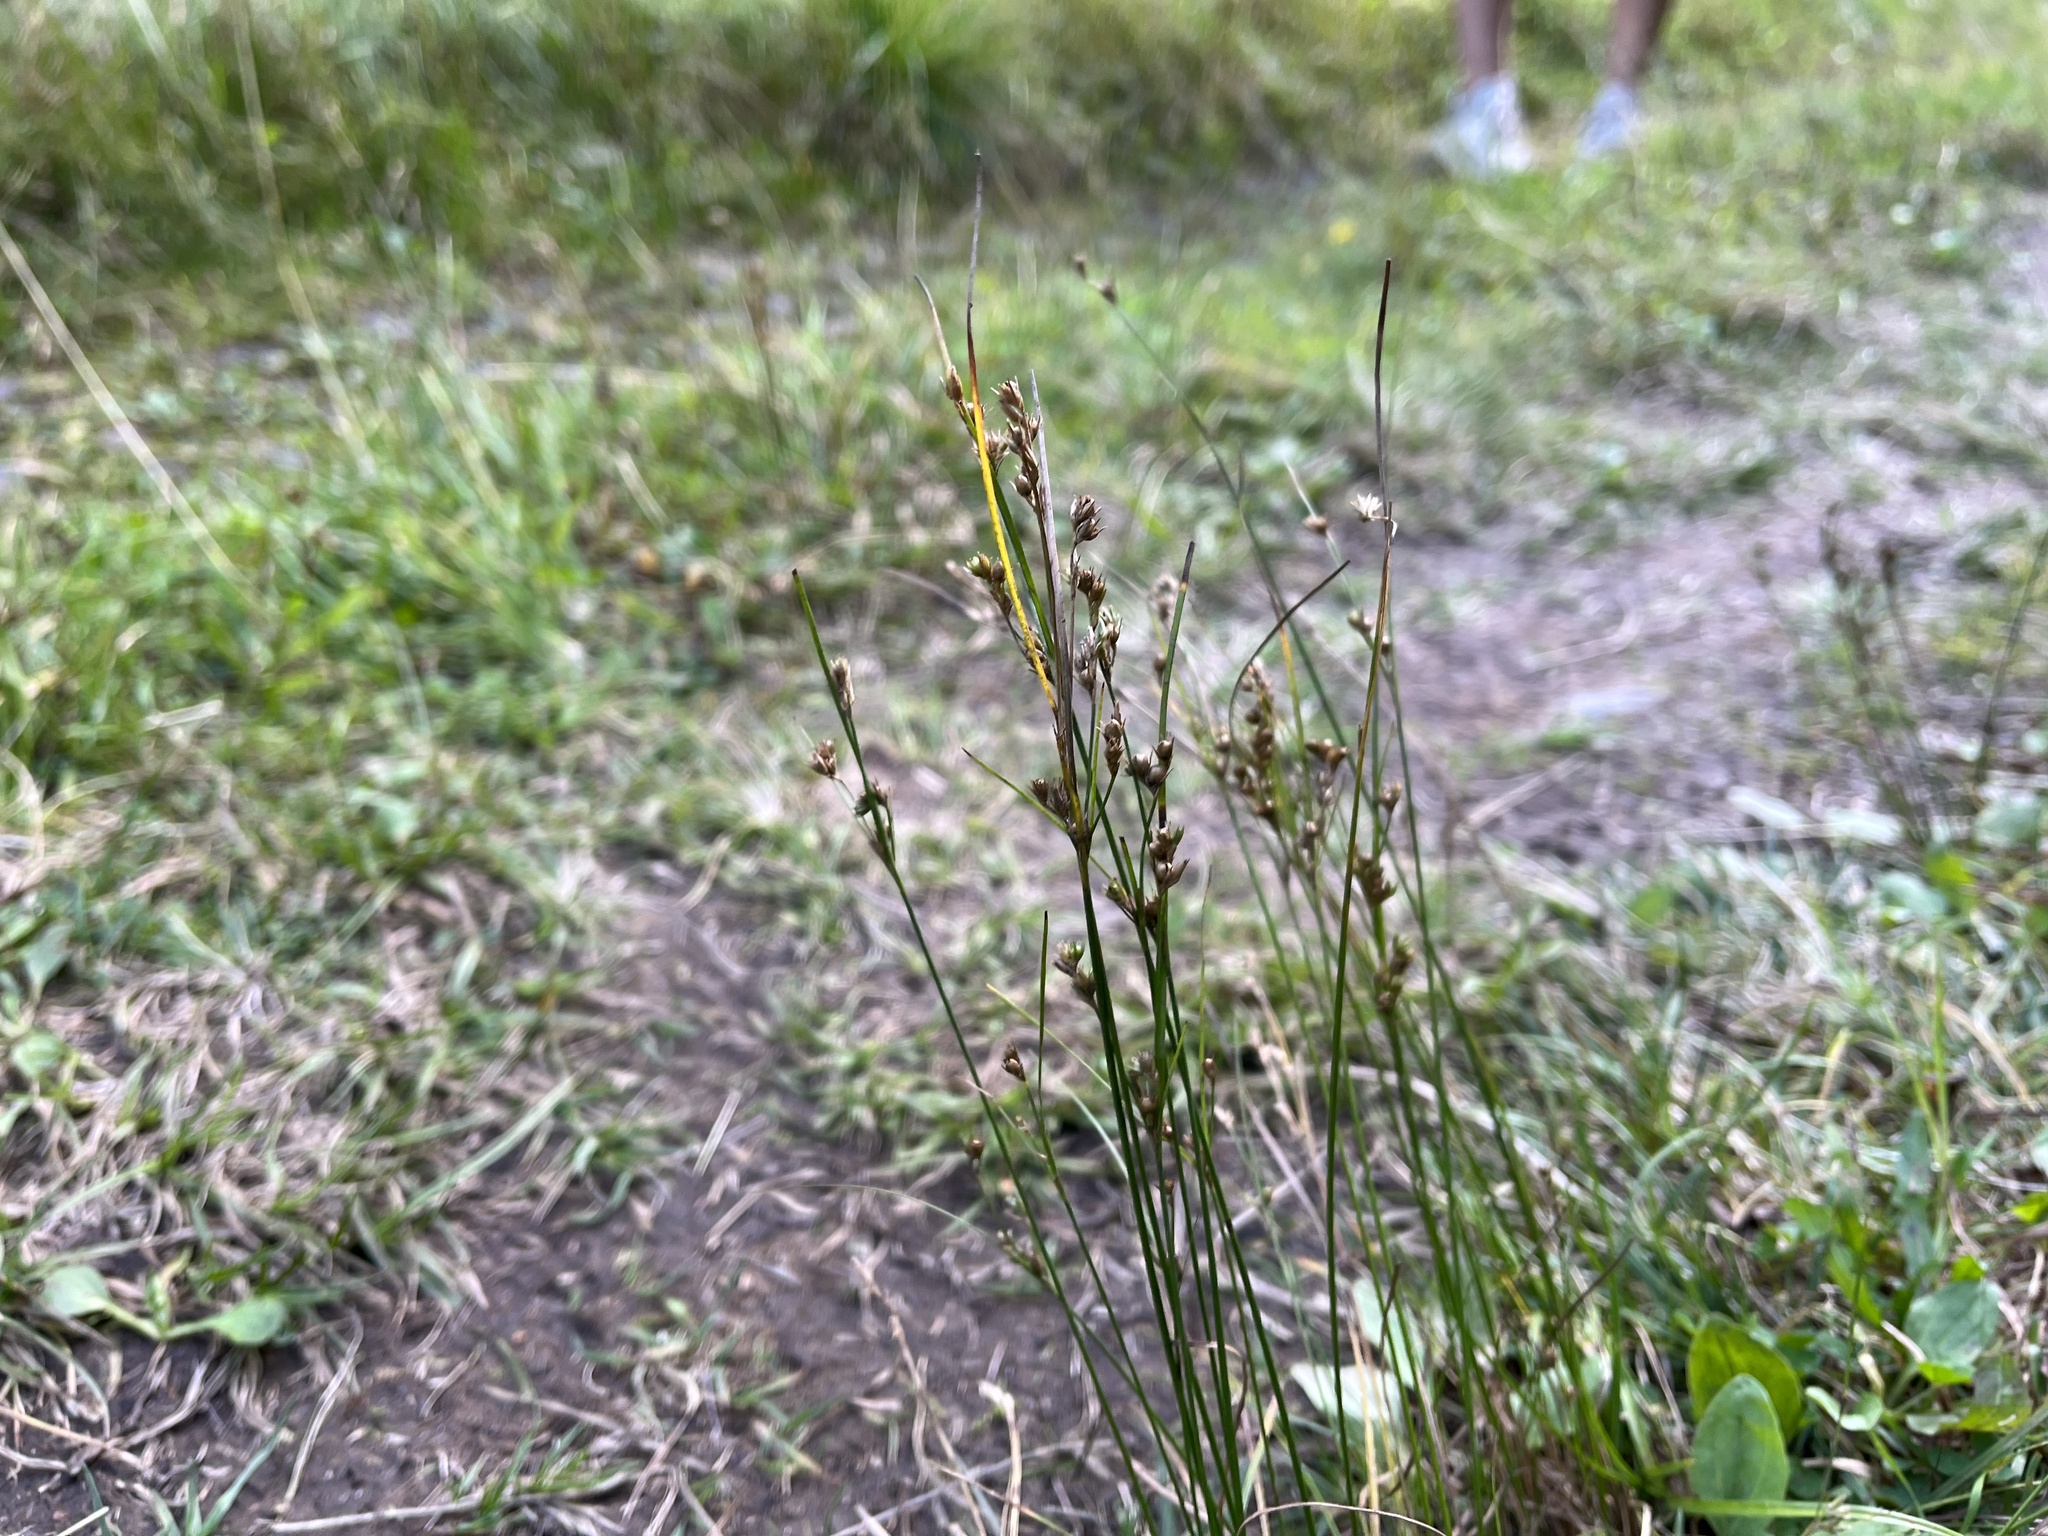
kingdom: Plantae
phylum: Tracheophyta
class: Liliopsida
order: Poales
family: Juncaceae
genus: Juncus
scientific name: Juncus tenuis
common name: Slender rush
